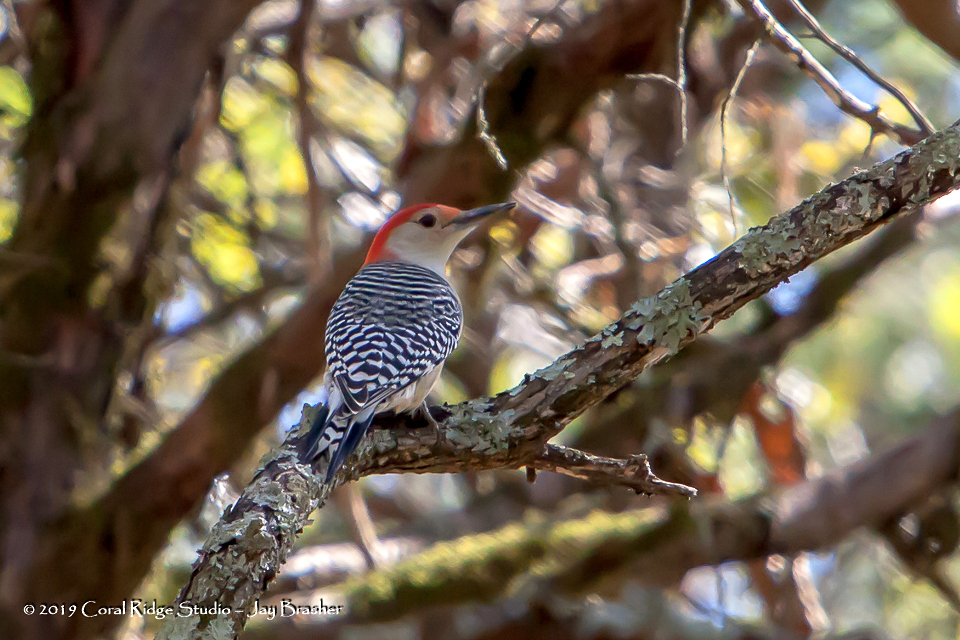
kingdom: Animalia
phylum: Chordata
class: Aves
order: Piciformes
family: Picidae
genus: Melanerpes
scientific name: Melanerpes carolinus
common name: Red-bellied woodpecker
